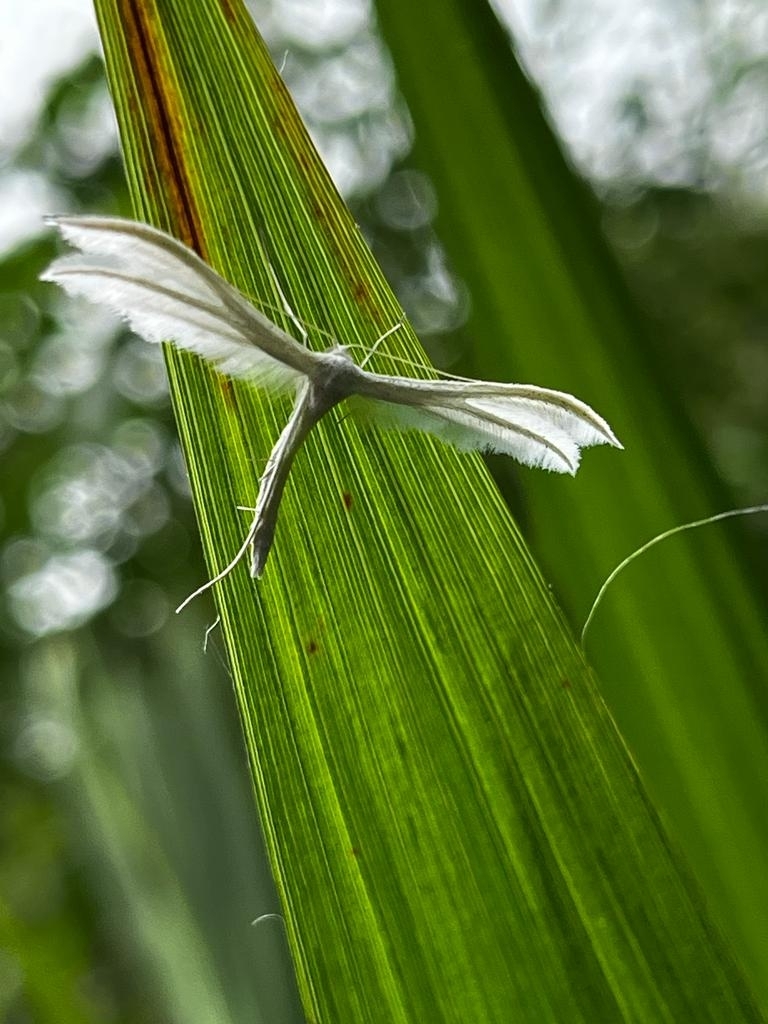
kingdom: Animalia
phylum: Arthropoda
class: Insecta
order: Lepidoptera
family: Pterophoridae
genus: Pterophorus
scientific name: Pterophorus pentadactyla
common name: White plume moth
